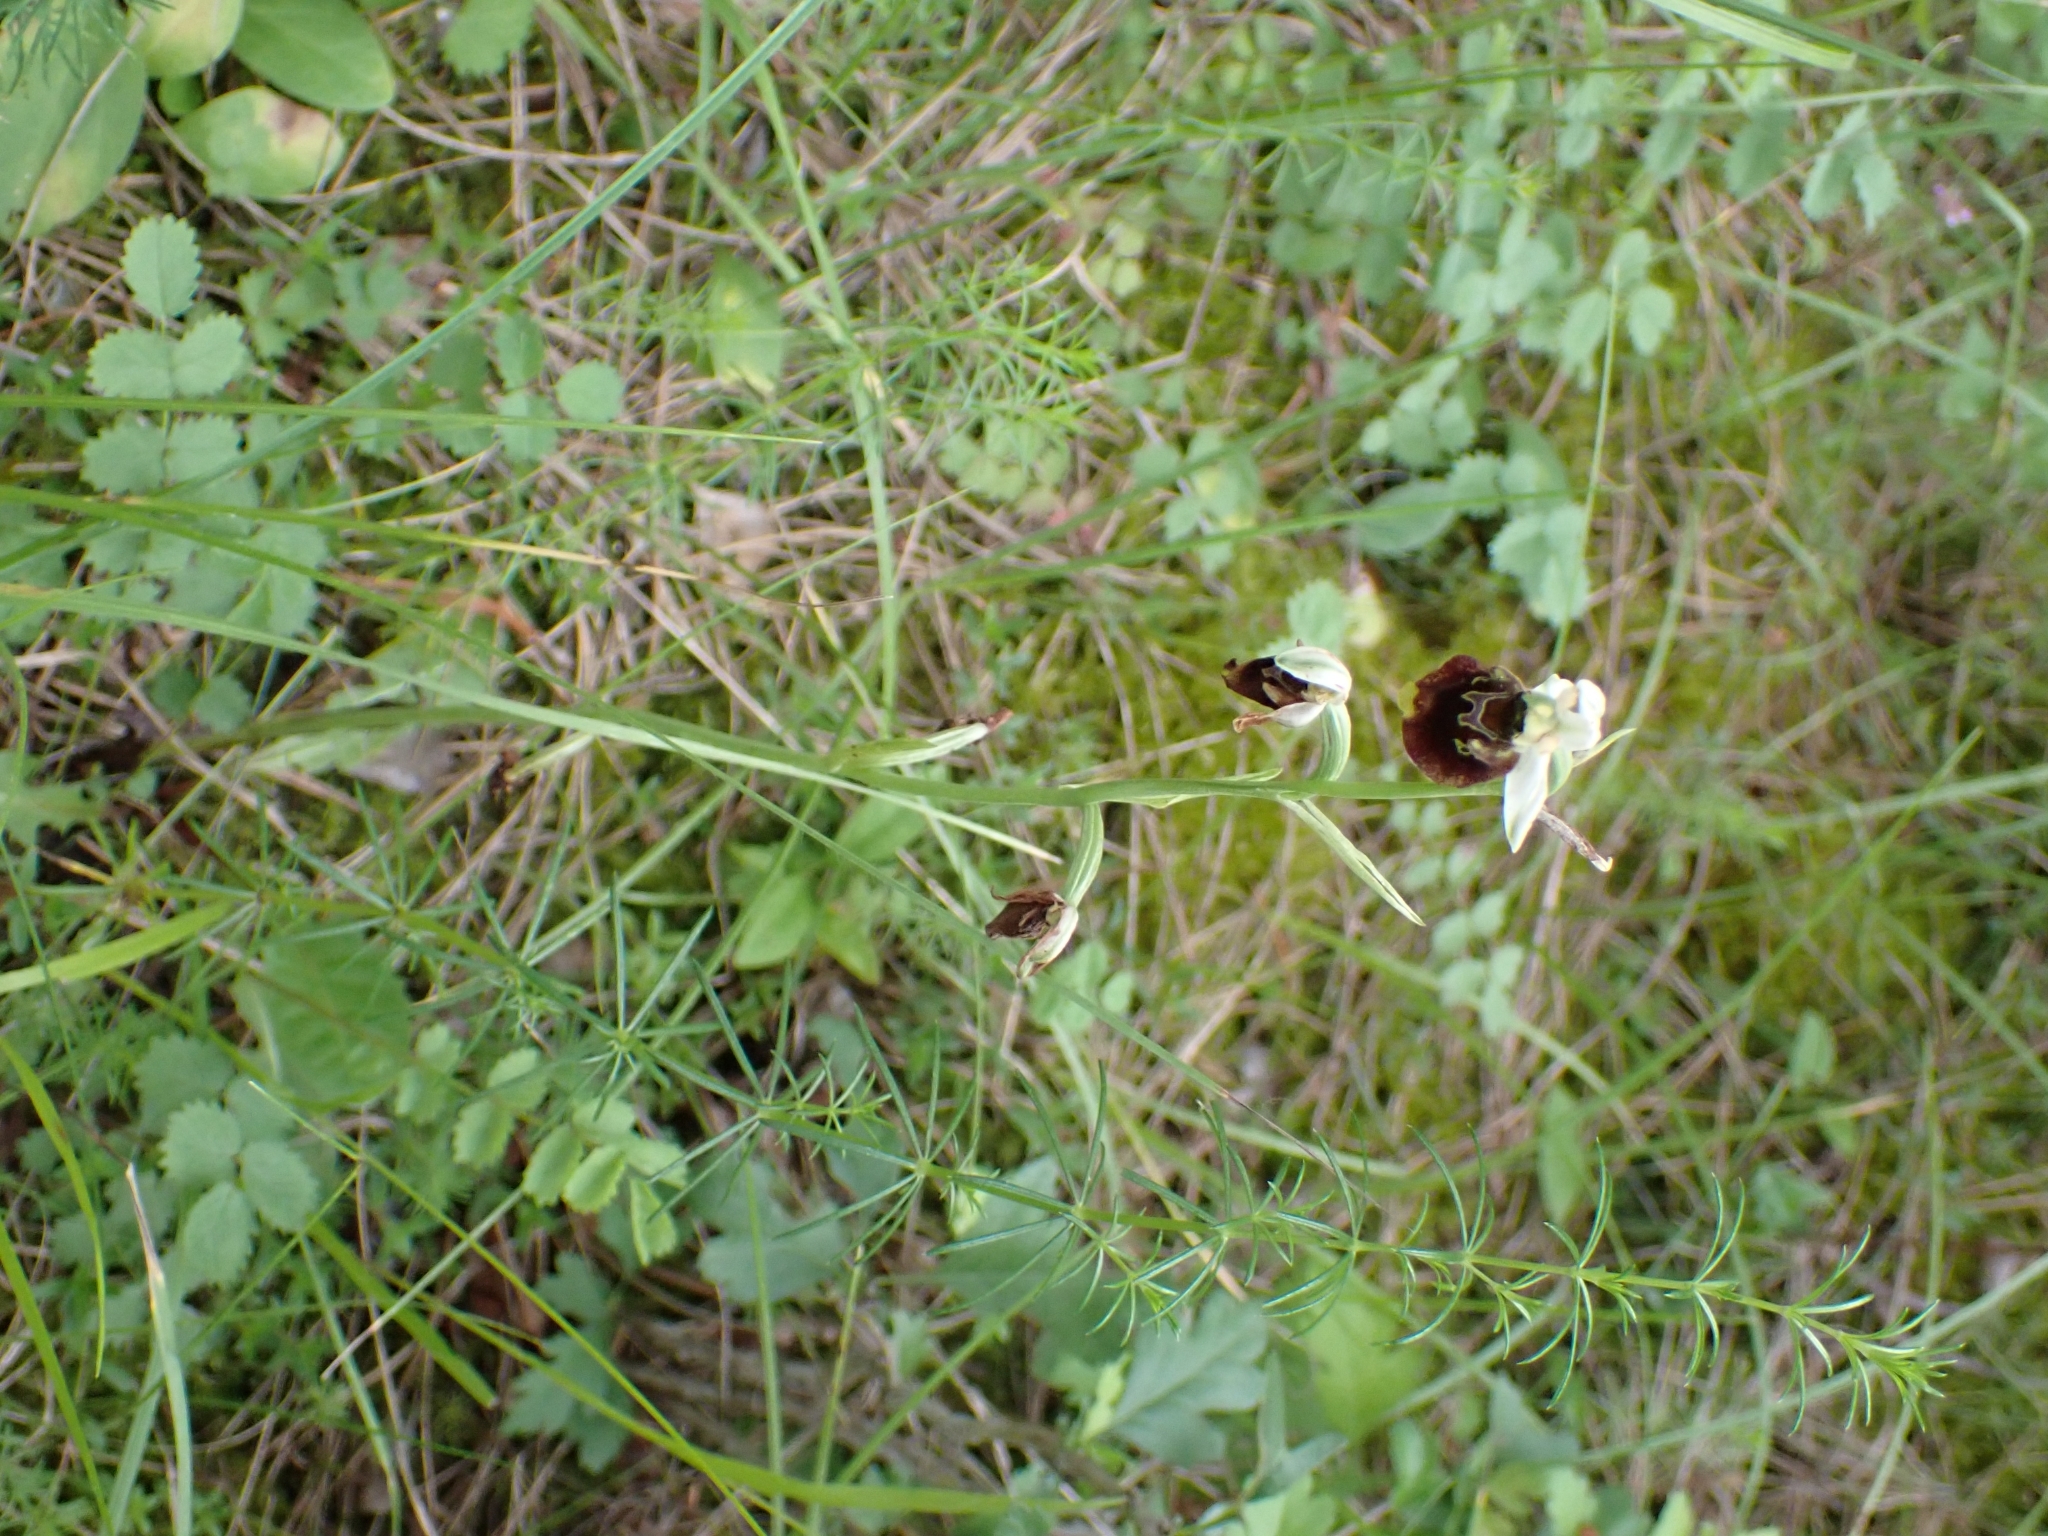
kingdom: Plantae
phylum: Tracheophyta
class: Liliopsida
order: Asparagales
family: Orchidaceae
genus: Ophrys
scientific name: Ophrys holosericea
